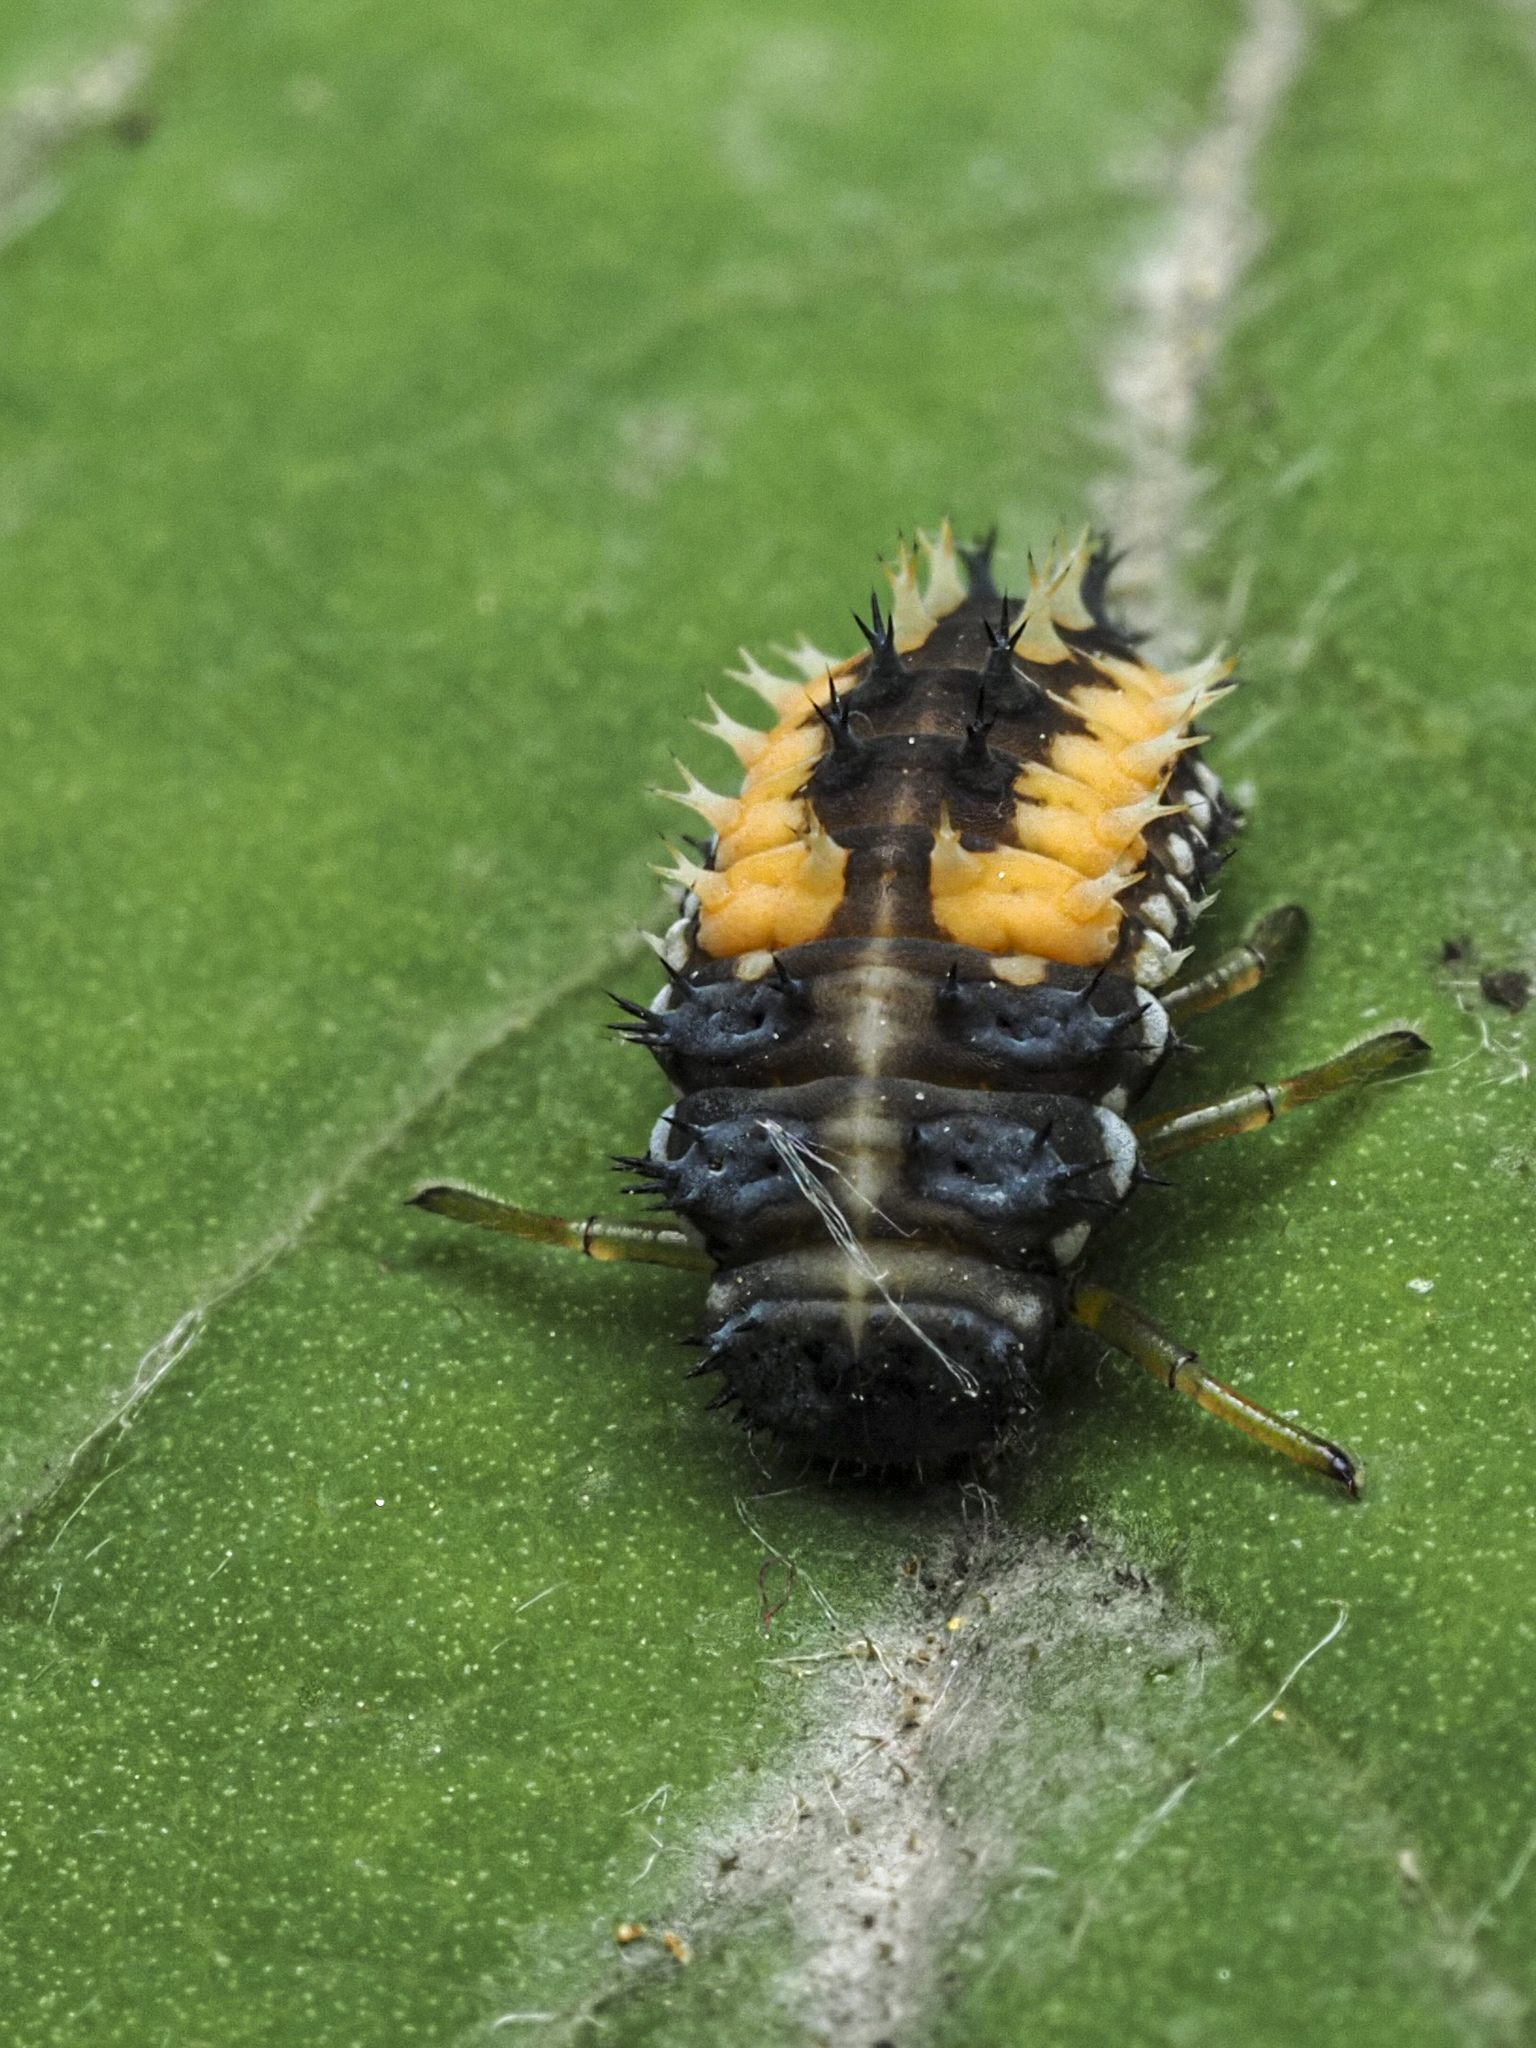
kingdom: Animalia
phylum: Arthropoda
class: Insecta
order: Coleoptera
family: Coccinellidae
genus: Harmonia
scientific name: Harmonia axyridis
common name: Harlequin ladybird
